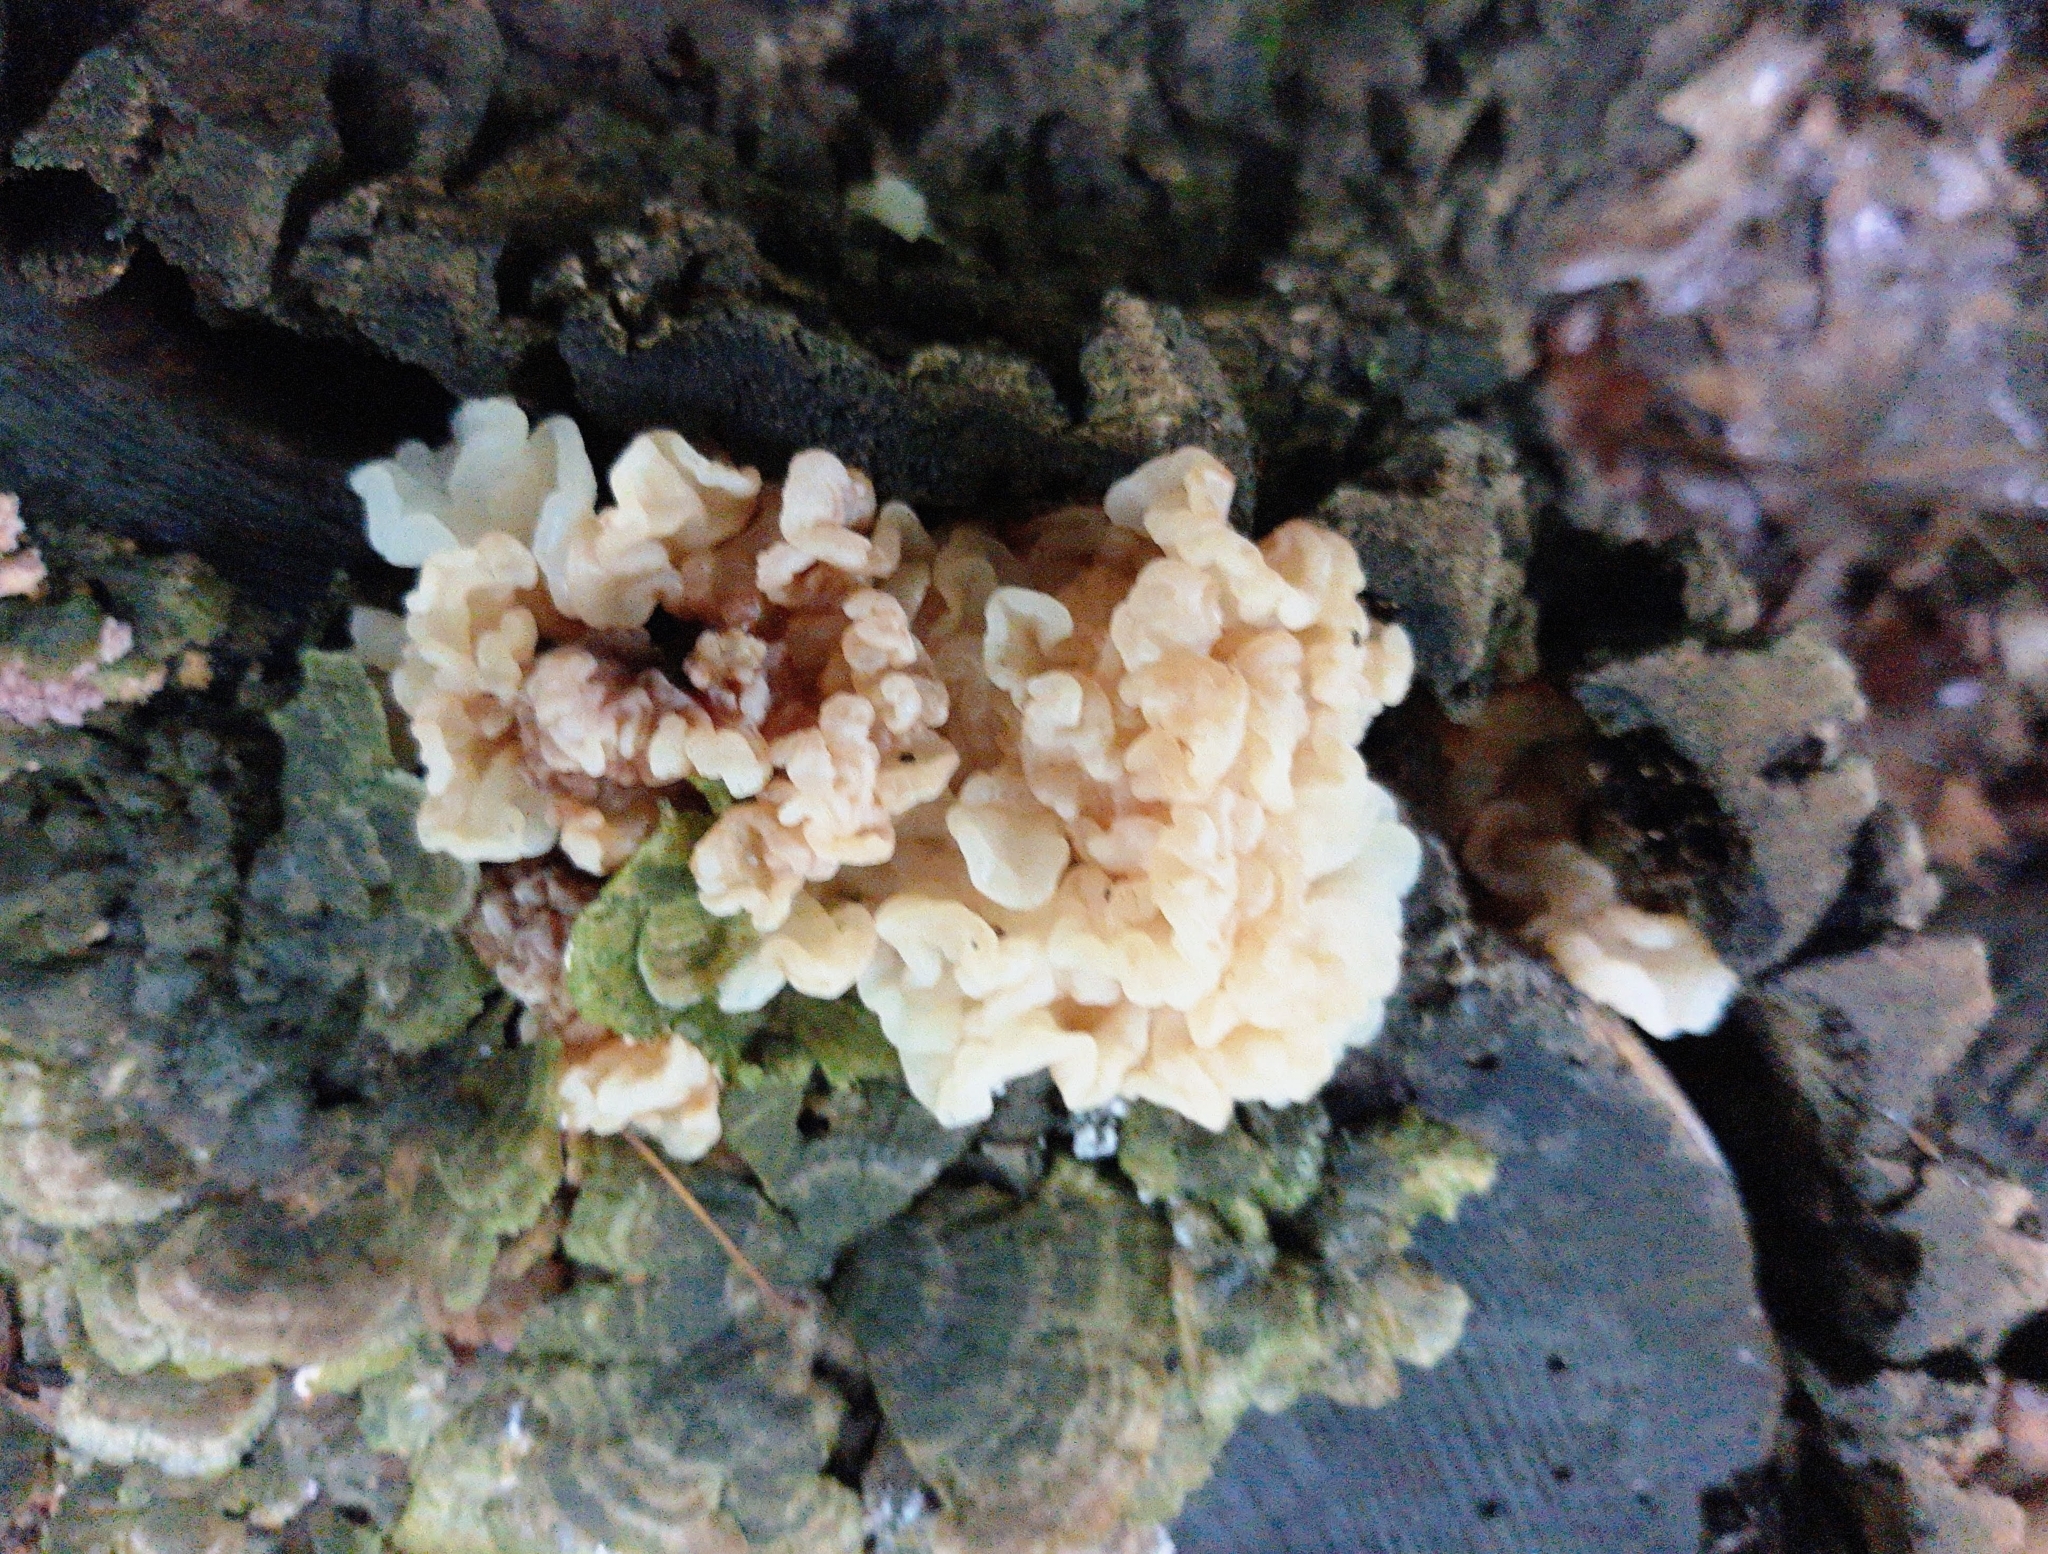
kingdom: Fungi
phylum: Basidiomycota
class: Agaricomycetes
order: Auriculariales
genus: Ductifera
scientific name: Ductifera pululahuana
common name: White jelly fungus
